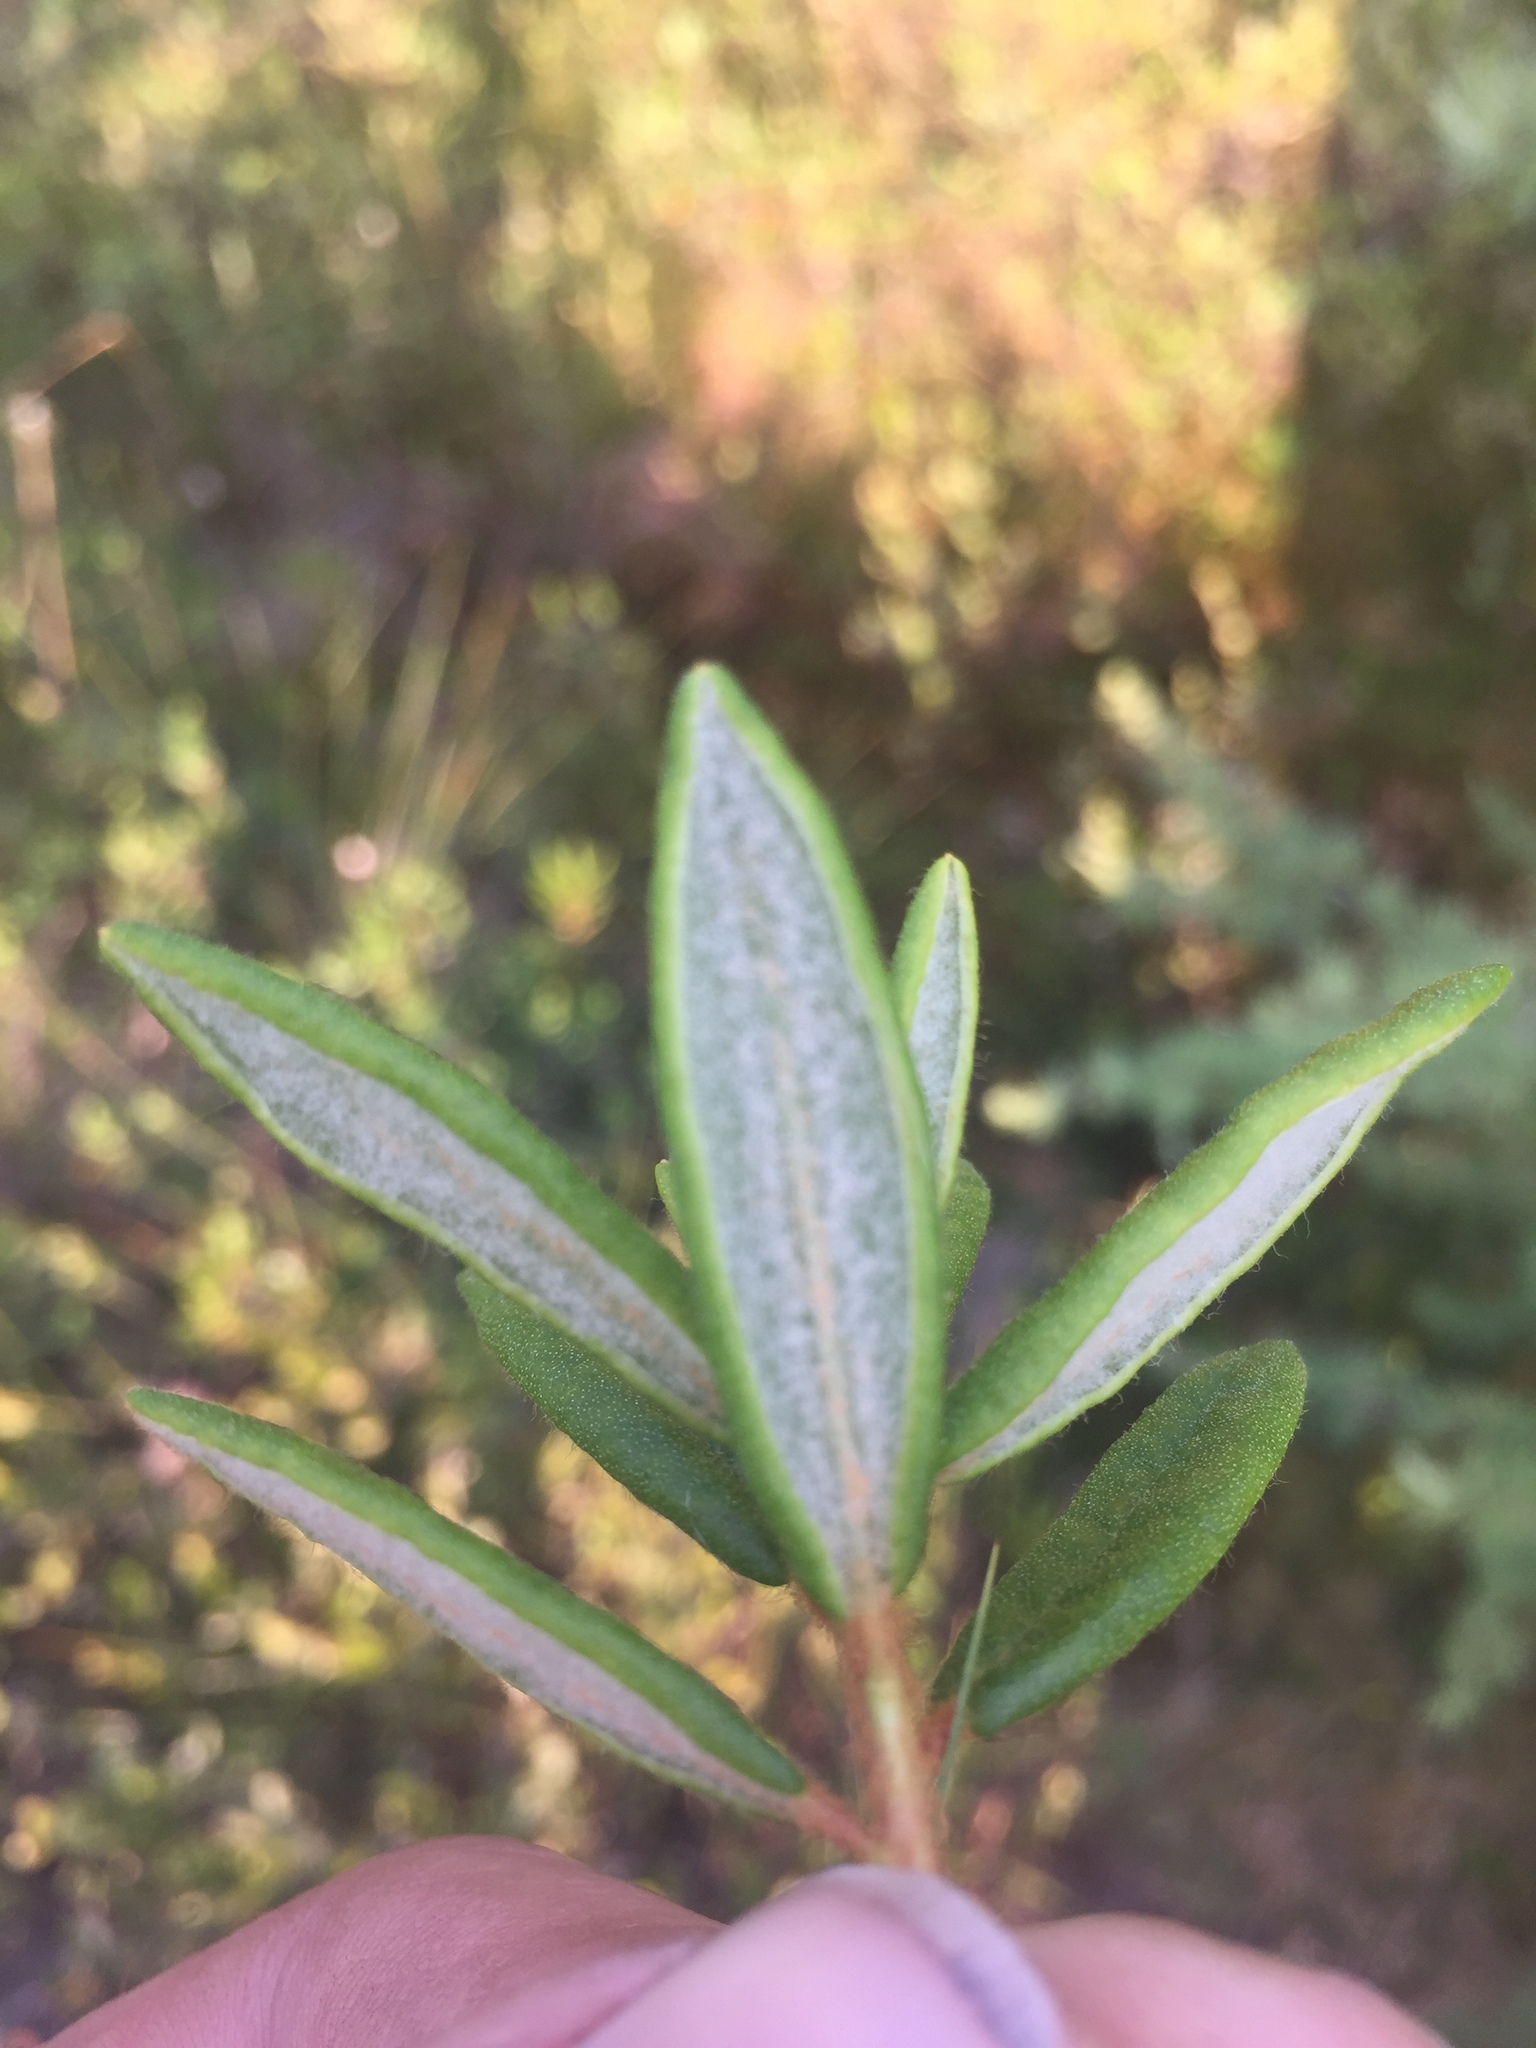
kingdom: Plantae
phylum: Tracheophyta
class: Magnoliopsida
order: Ericales
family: Ericaceae
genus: Rhododendron
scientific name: Rhododendron groenlandicum
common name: Bog labrador tea
